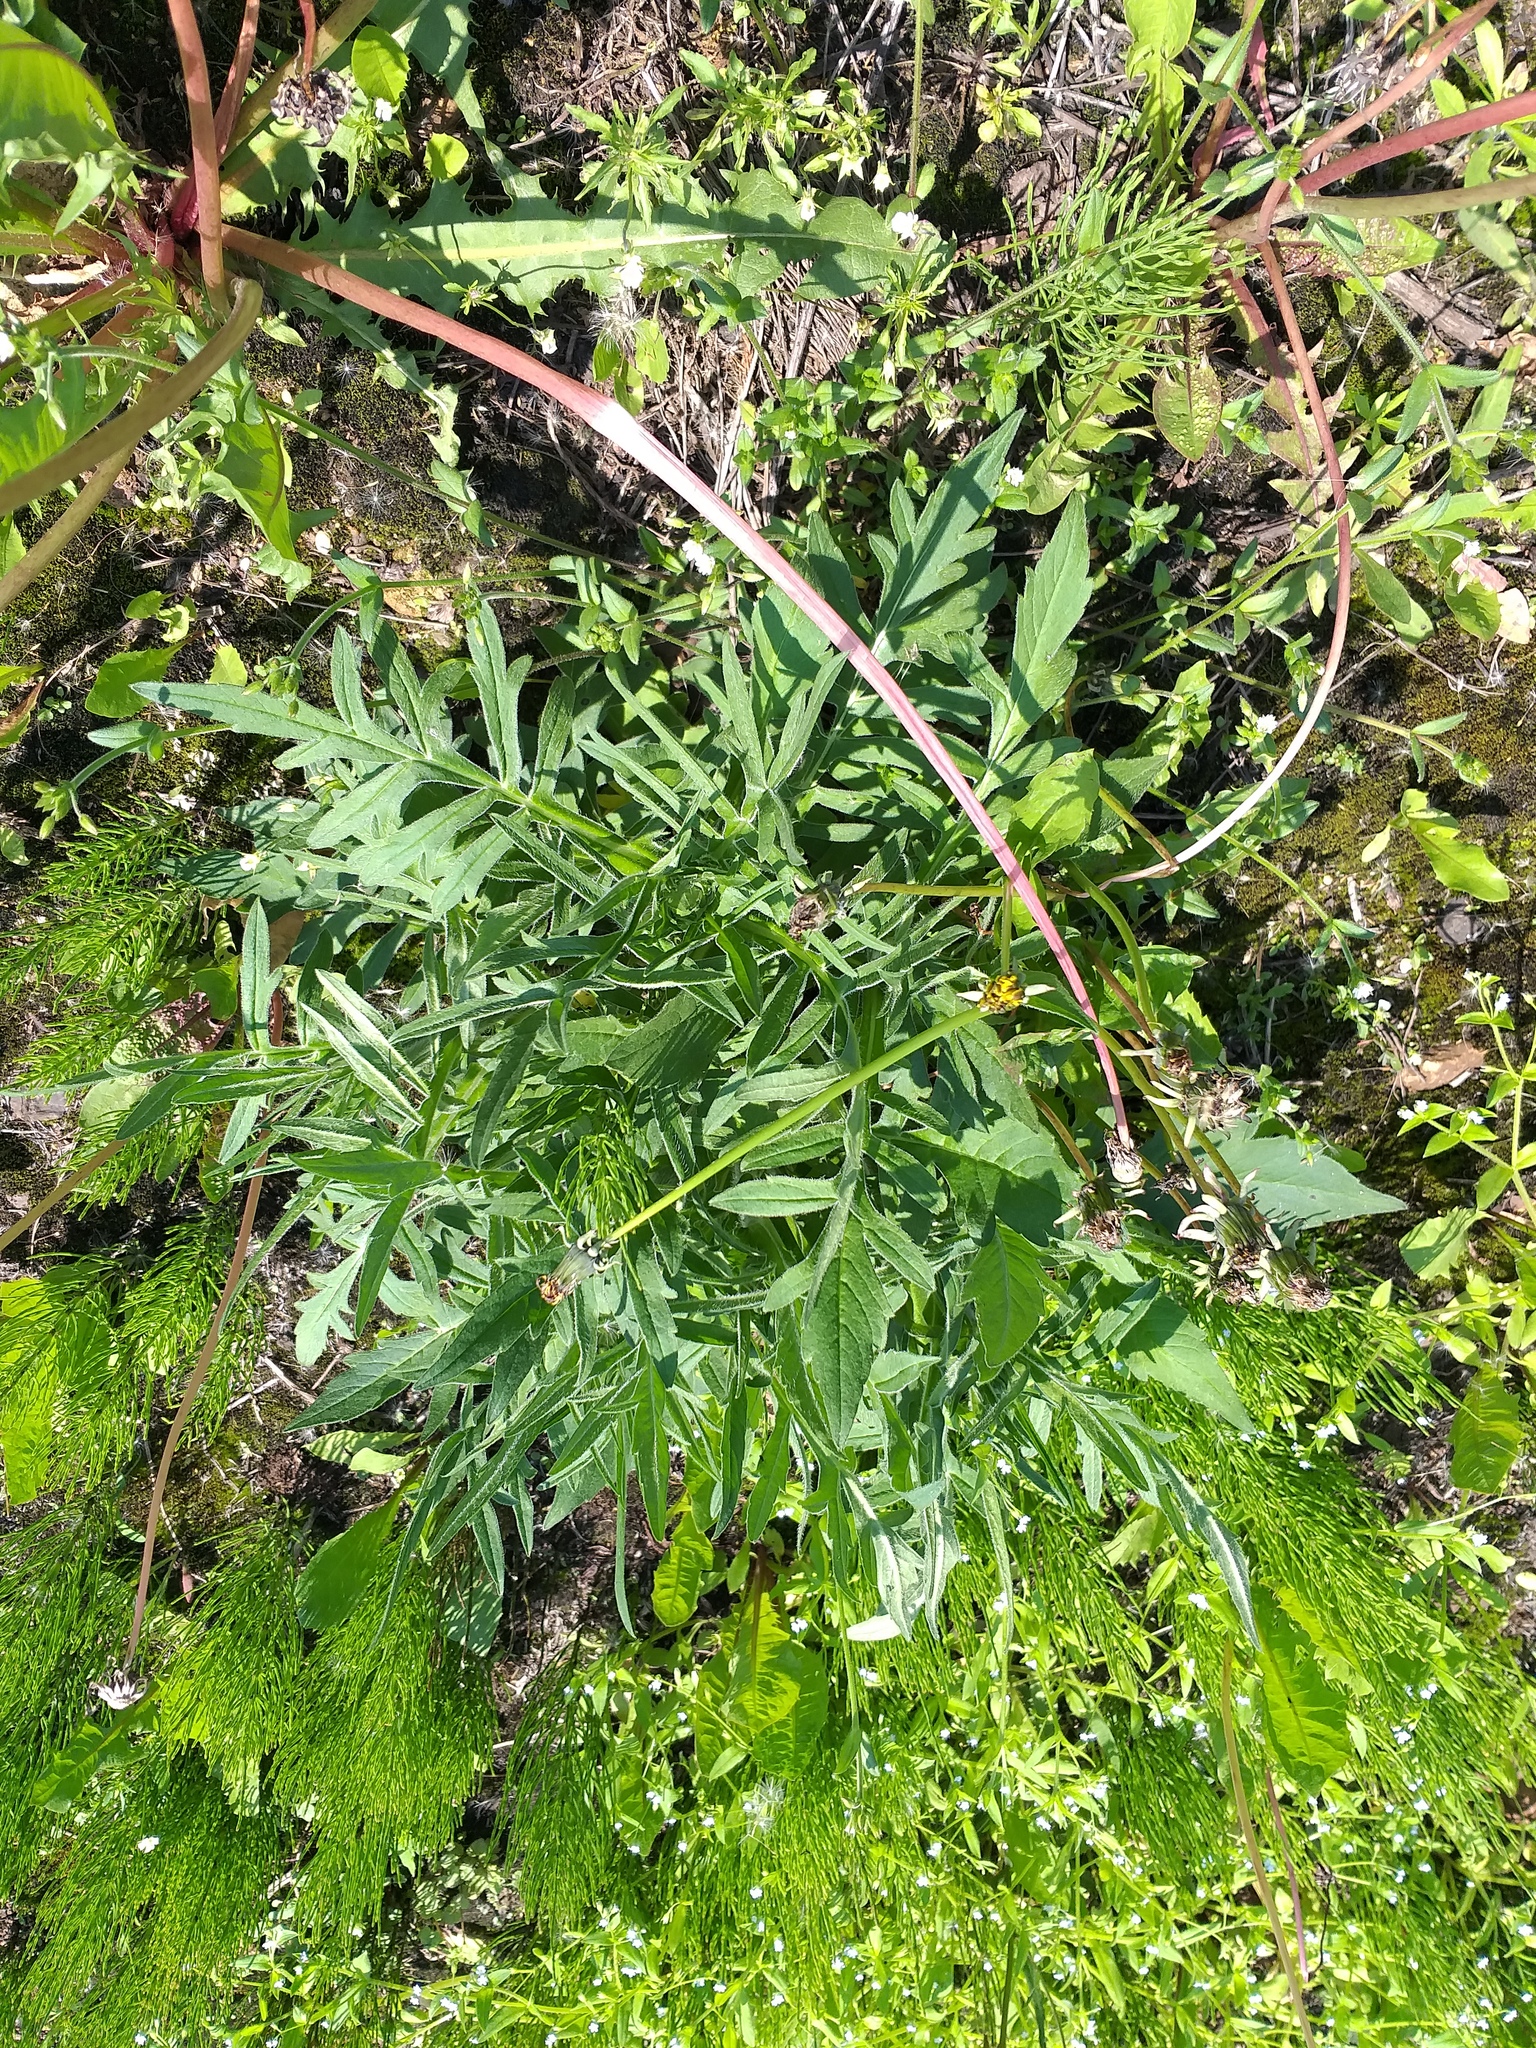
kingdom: Plantae
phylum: Tracheophyta
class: Magnoliopsida
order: Dipsacales
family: Caprifoliaceae
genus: Knautia
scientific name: Knautia arvensis
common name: Field scabiosa
